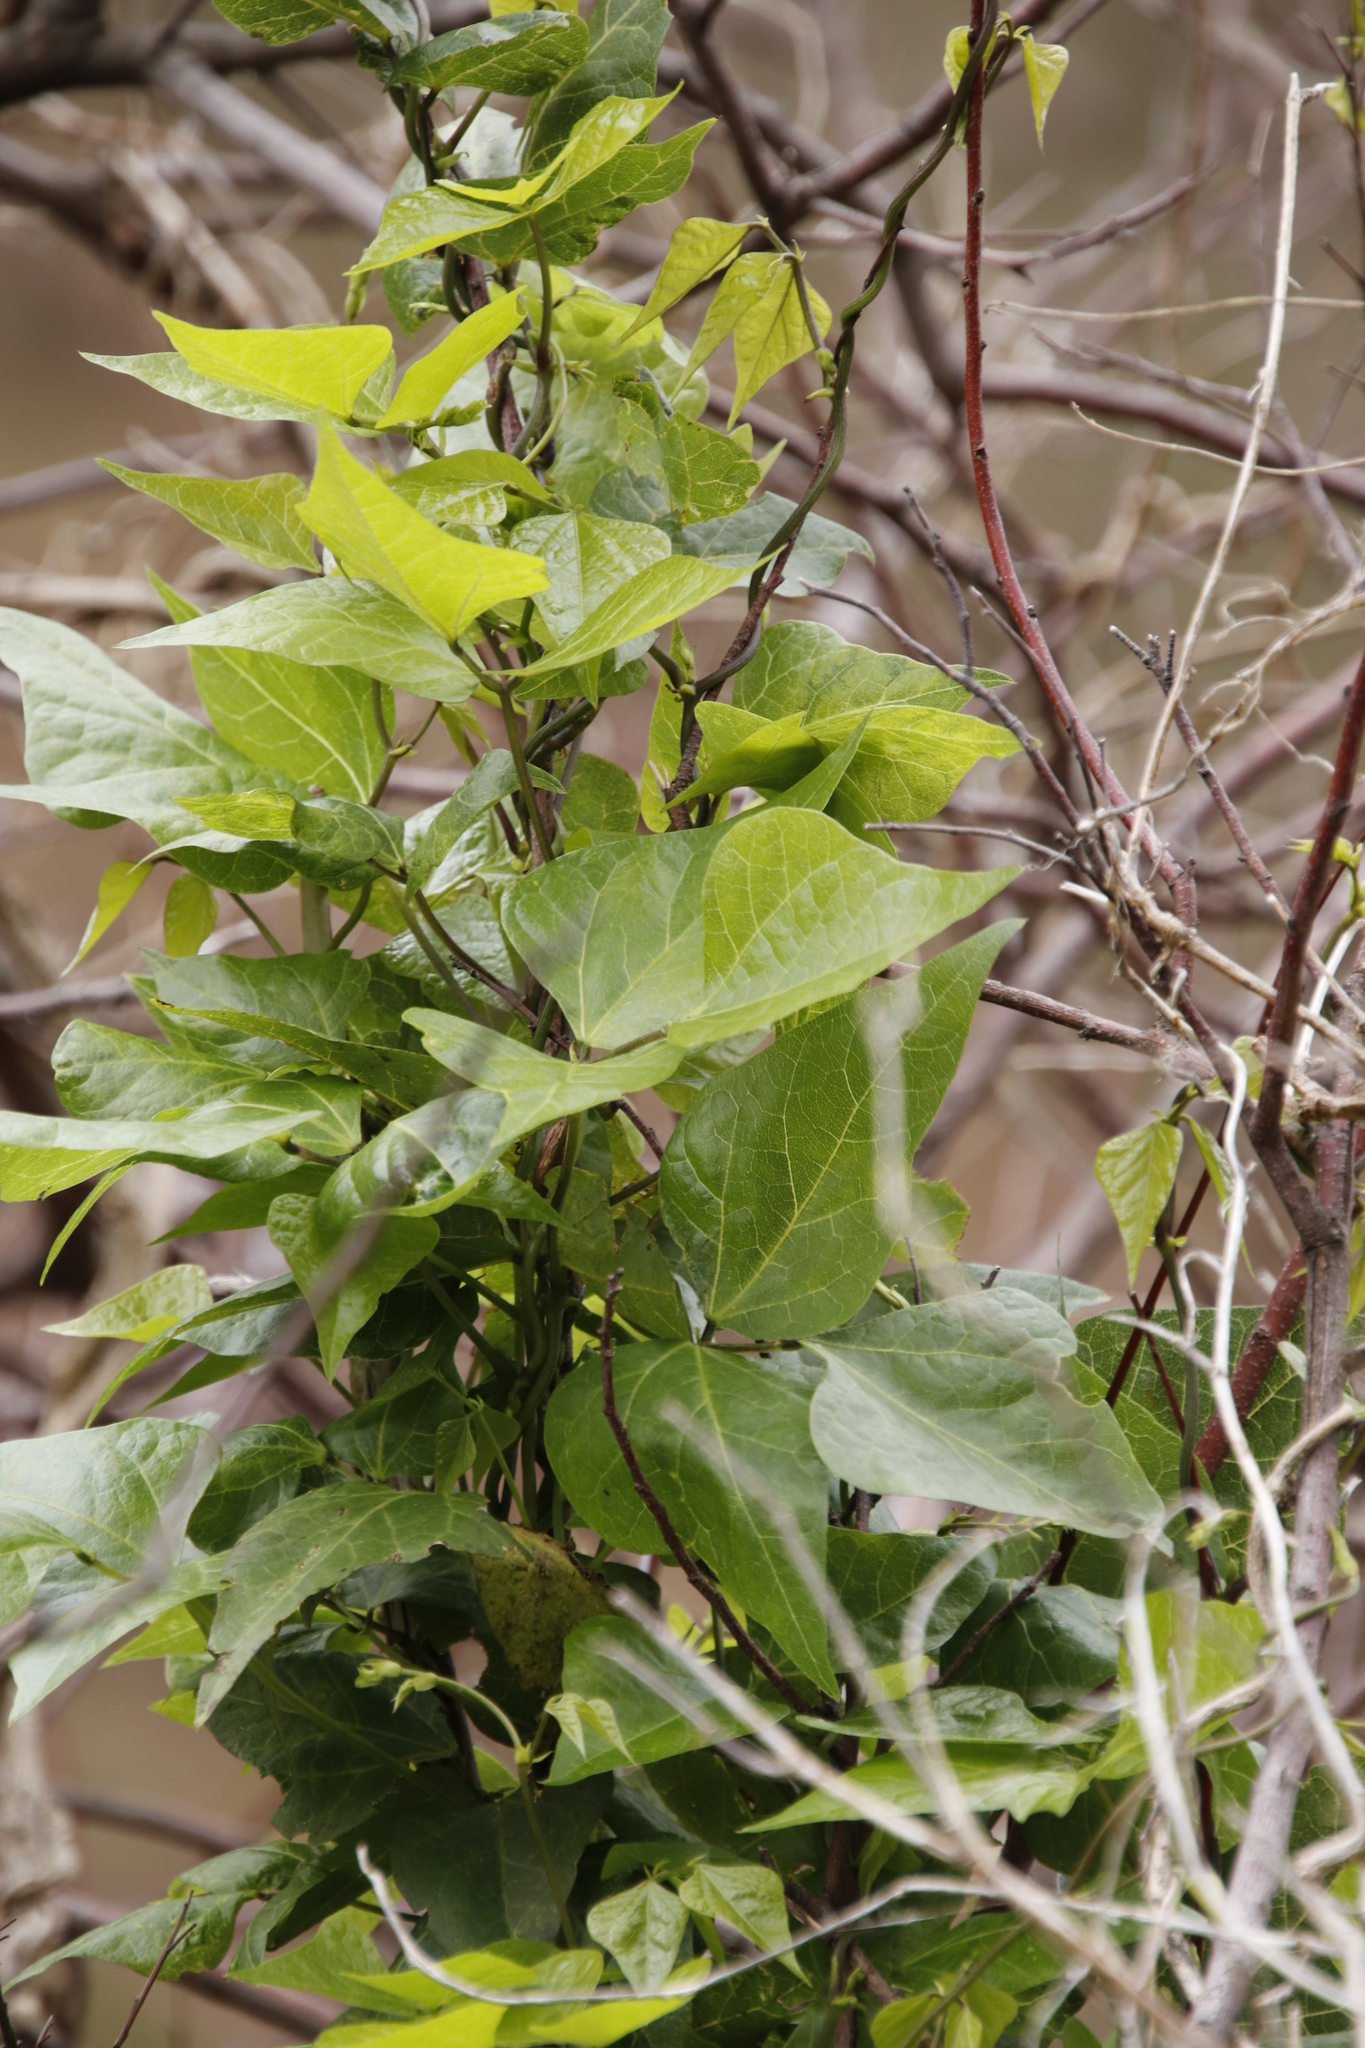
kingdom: Plantae
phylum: Tracheophyta
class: Magnoliopsida
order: Fabales
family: Fabaceae
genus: Dipogon
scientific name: Dipogon lignosus
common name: Okie bean
